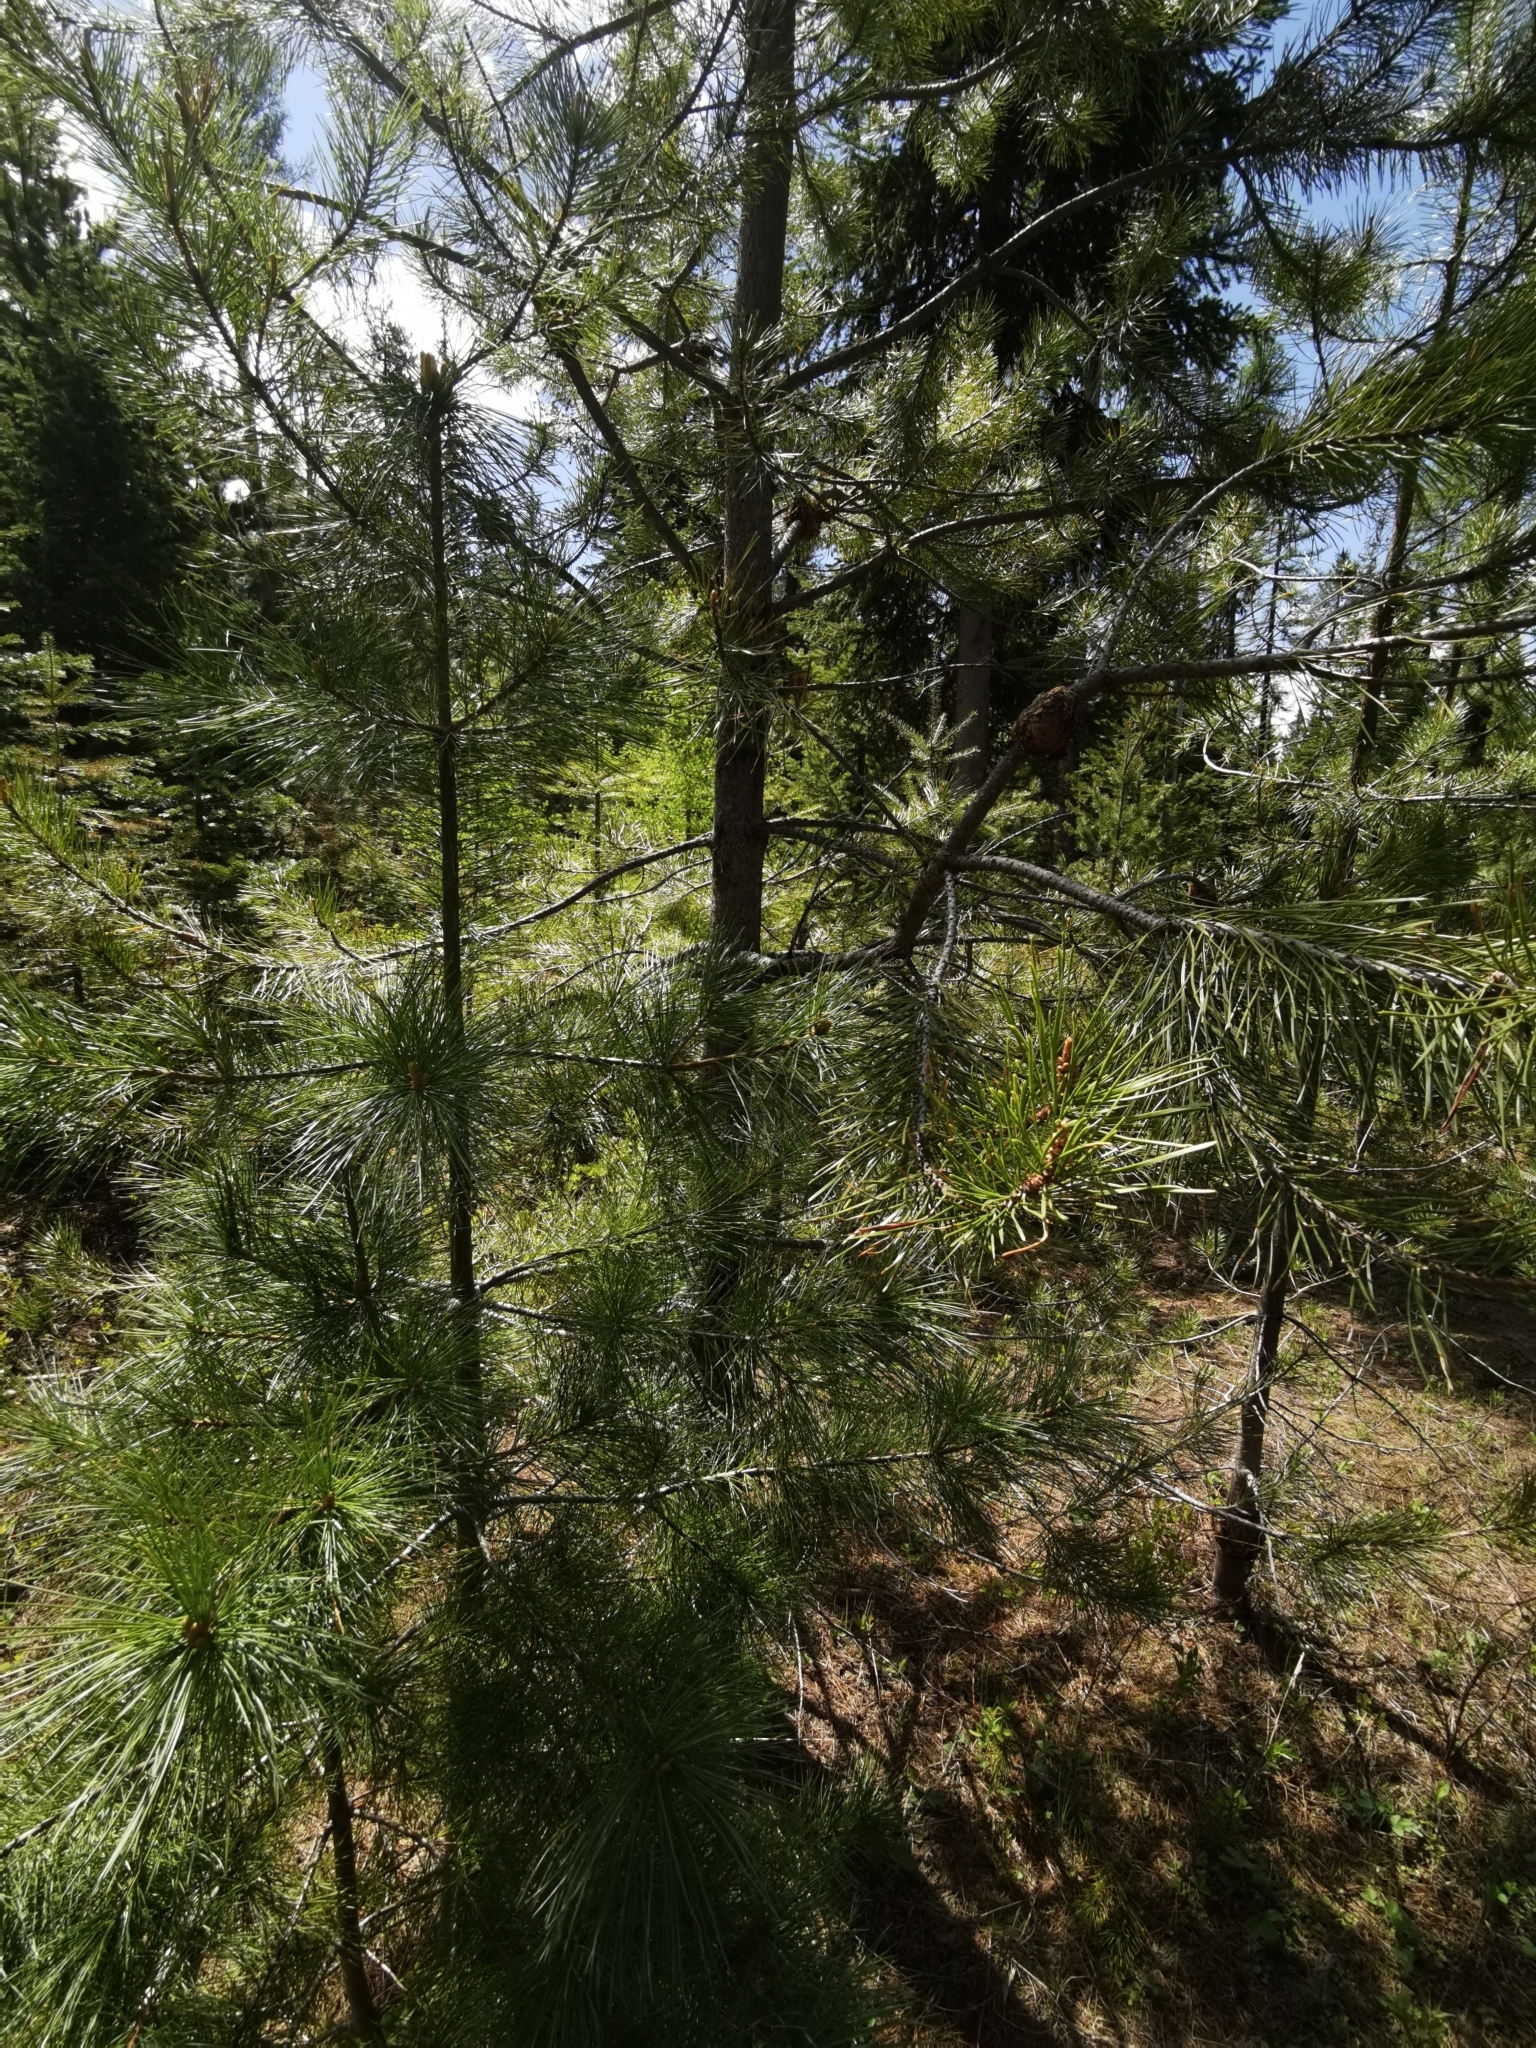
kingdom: Fungi
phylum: Basidiomycota
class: Pucciniomycetes
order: Pucciniales
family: Cronartiaceae
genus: Cronartium
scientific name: Cronartium harknessii
